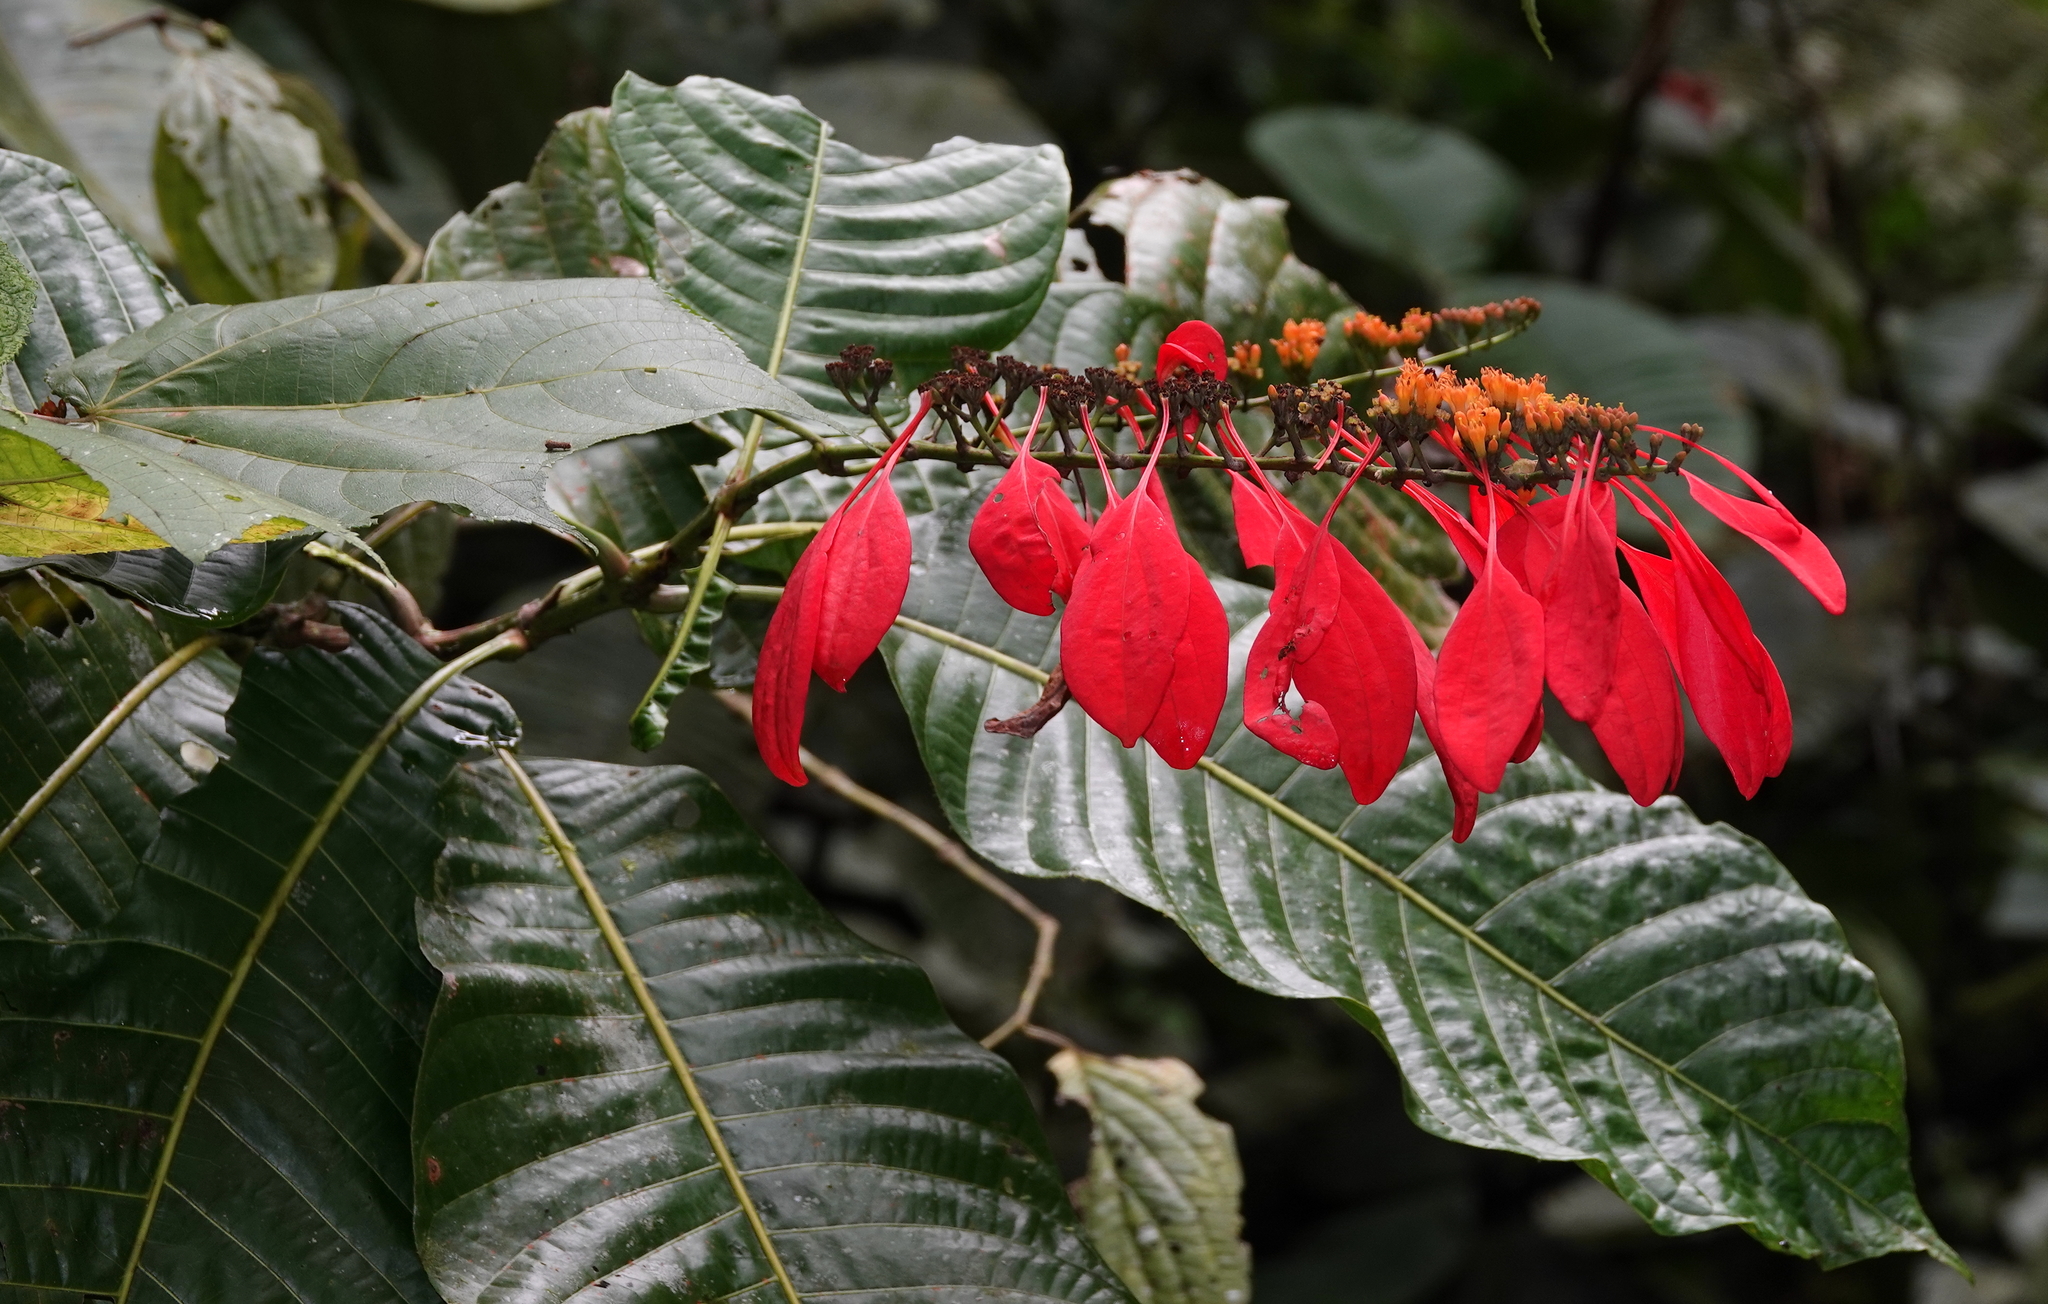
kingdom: Plantae
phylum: Tracheophyta
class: Magnoliopsida
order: Gentianales
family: Rubiaceae
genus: Warszewiczia
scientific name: Warszewiczia coccinea
